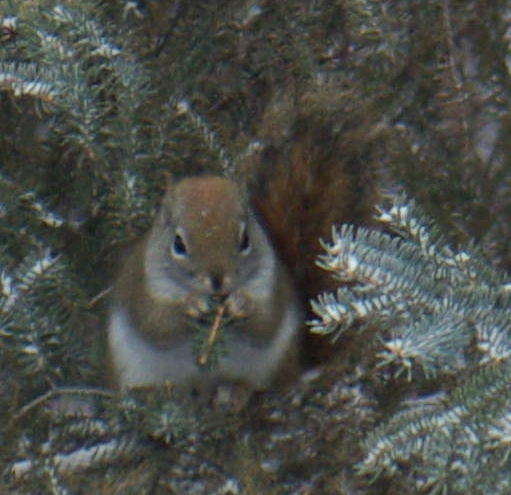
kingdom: Animalia
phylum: Chordata
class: Mammalia
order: Rodentia
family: Sciuridae
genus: Tamiasciurus
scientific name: Tamiasciurus hudsonicus
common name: Red squirrel
